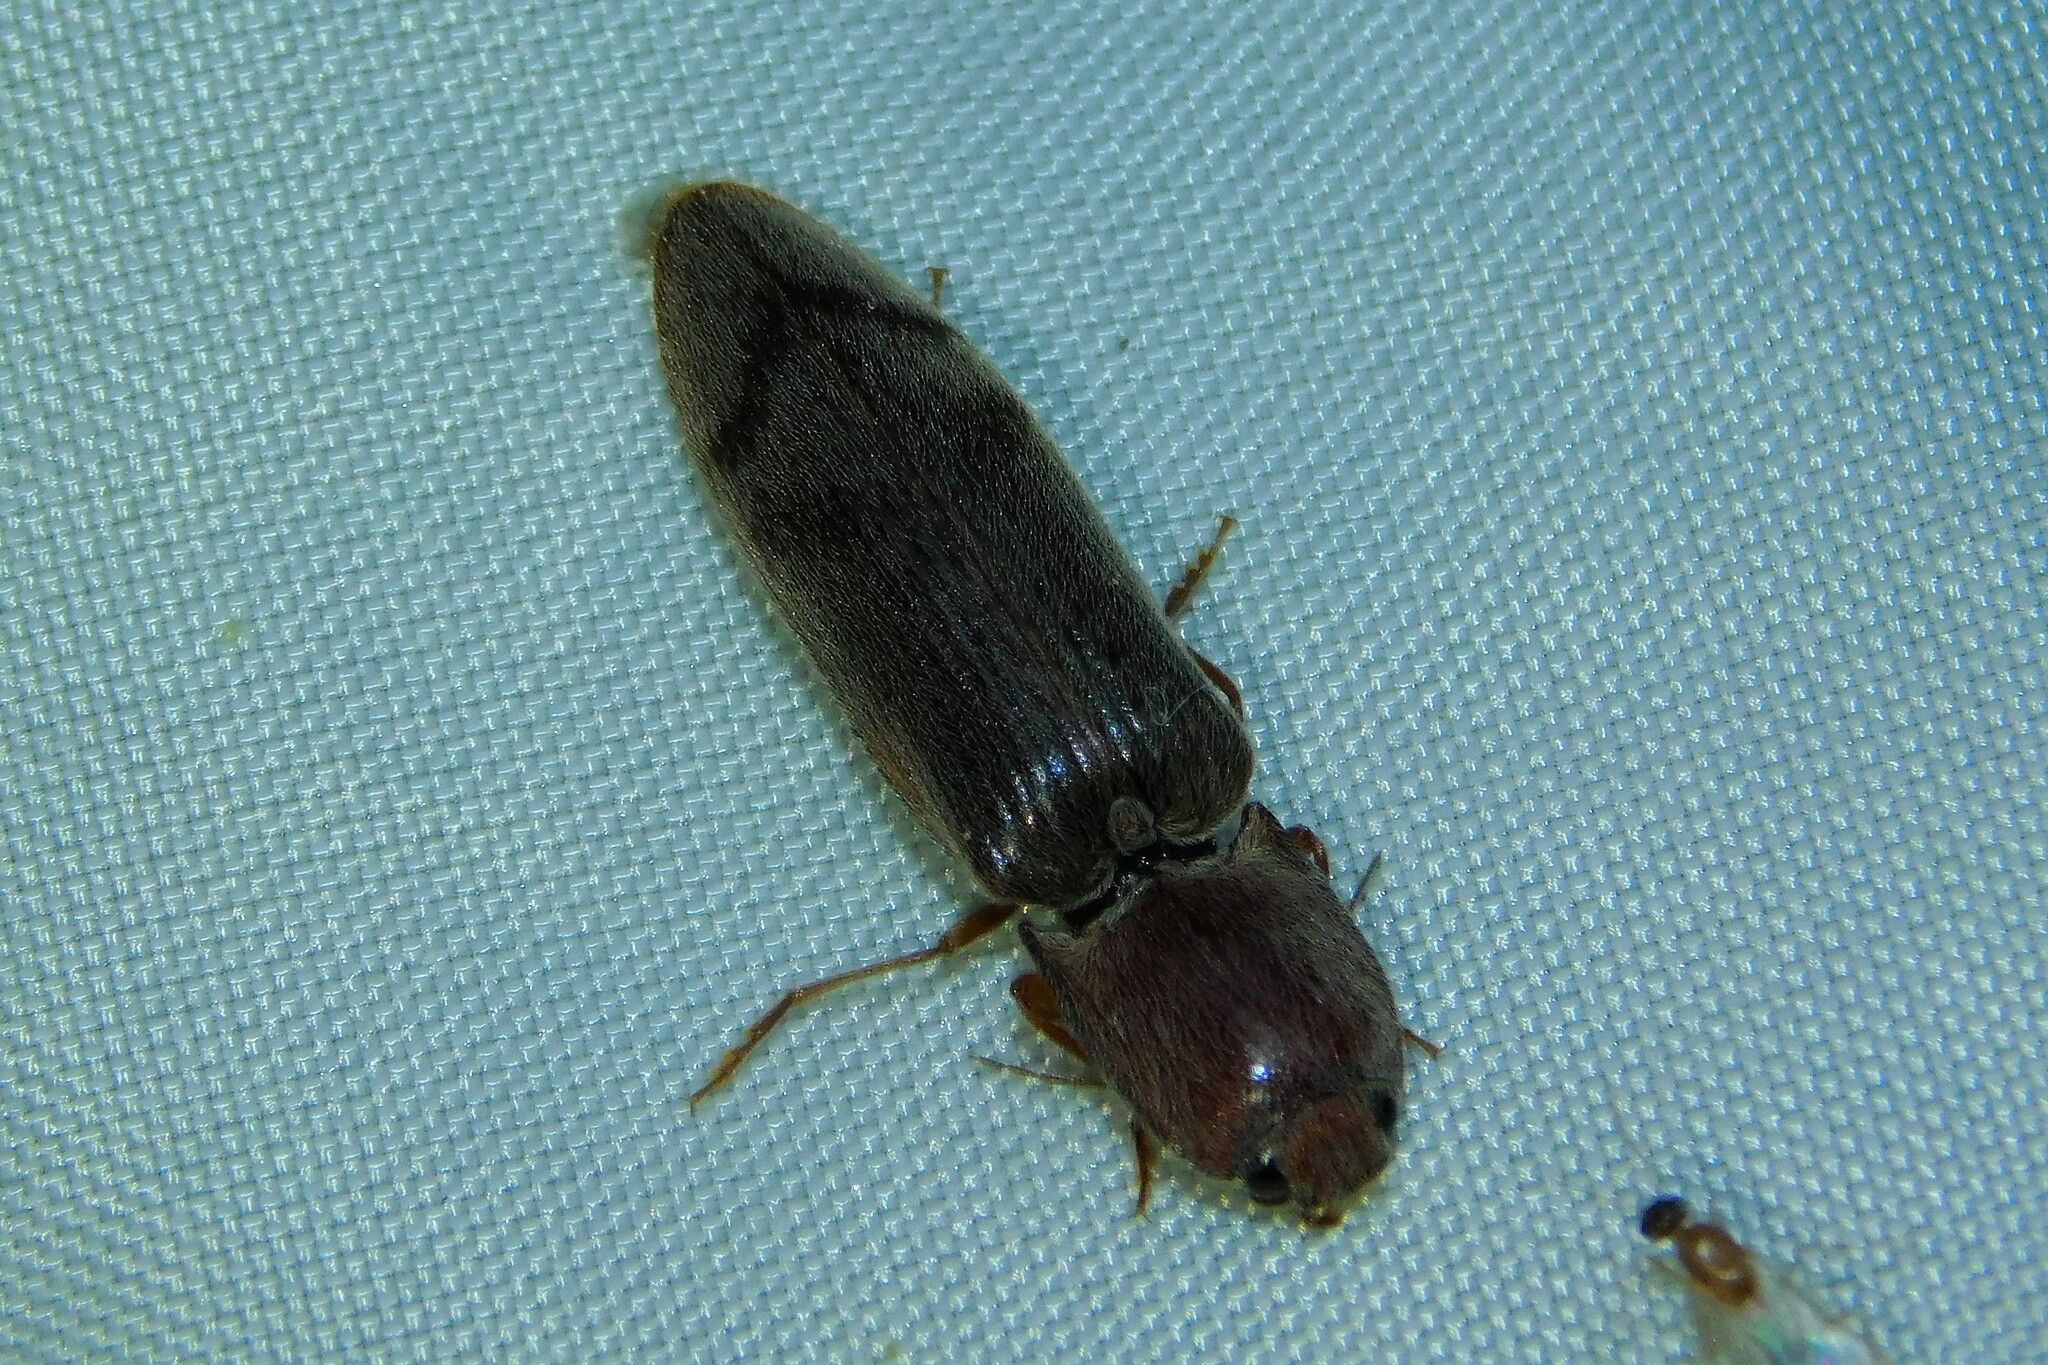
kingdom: Animalia
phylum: Arthropoda
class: Insecta
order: Coleoptera
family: Elateridae
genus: Stenagostus
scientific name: Stenagostus rhombeus
